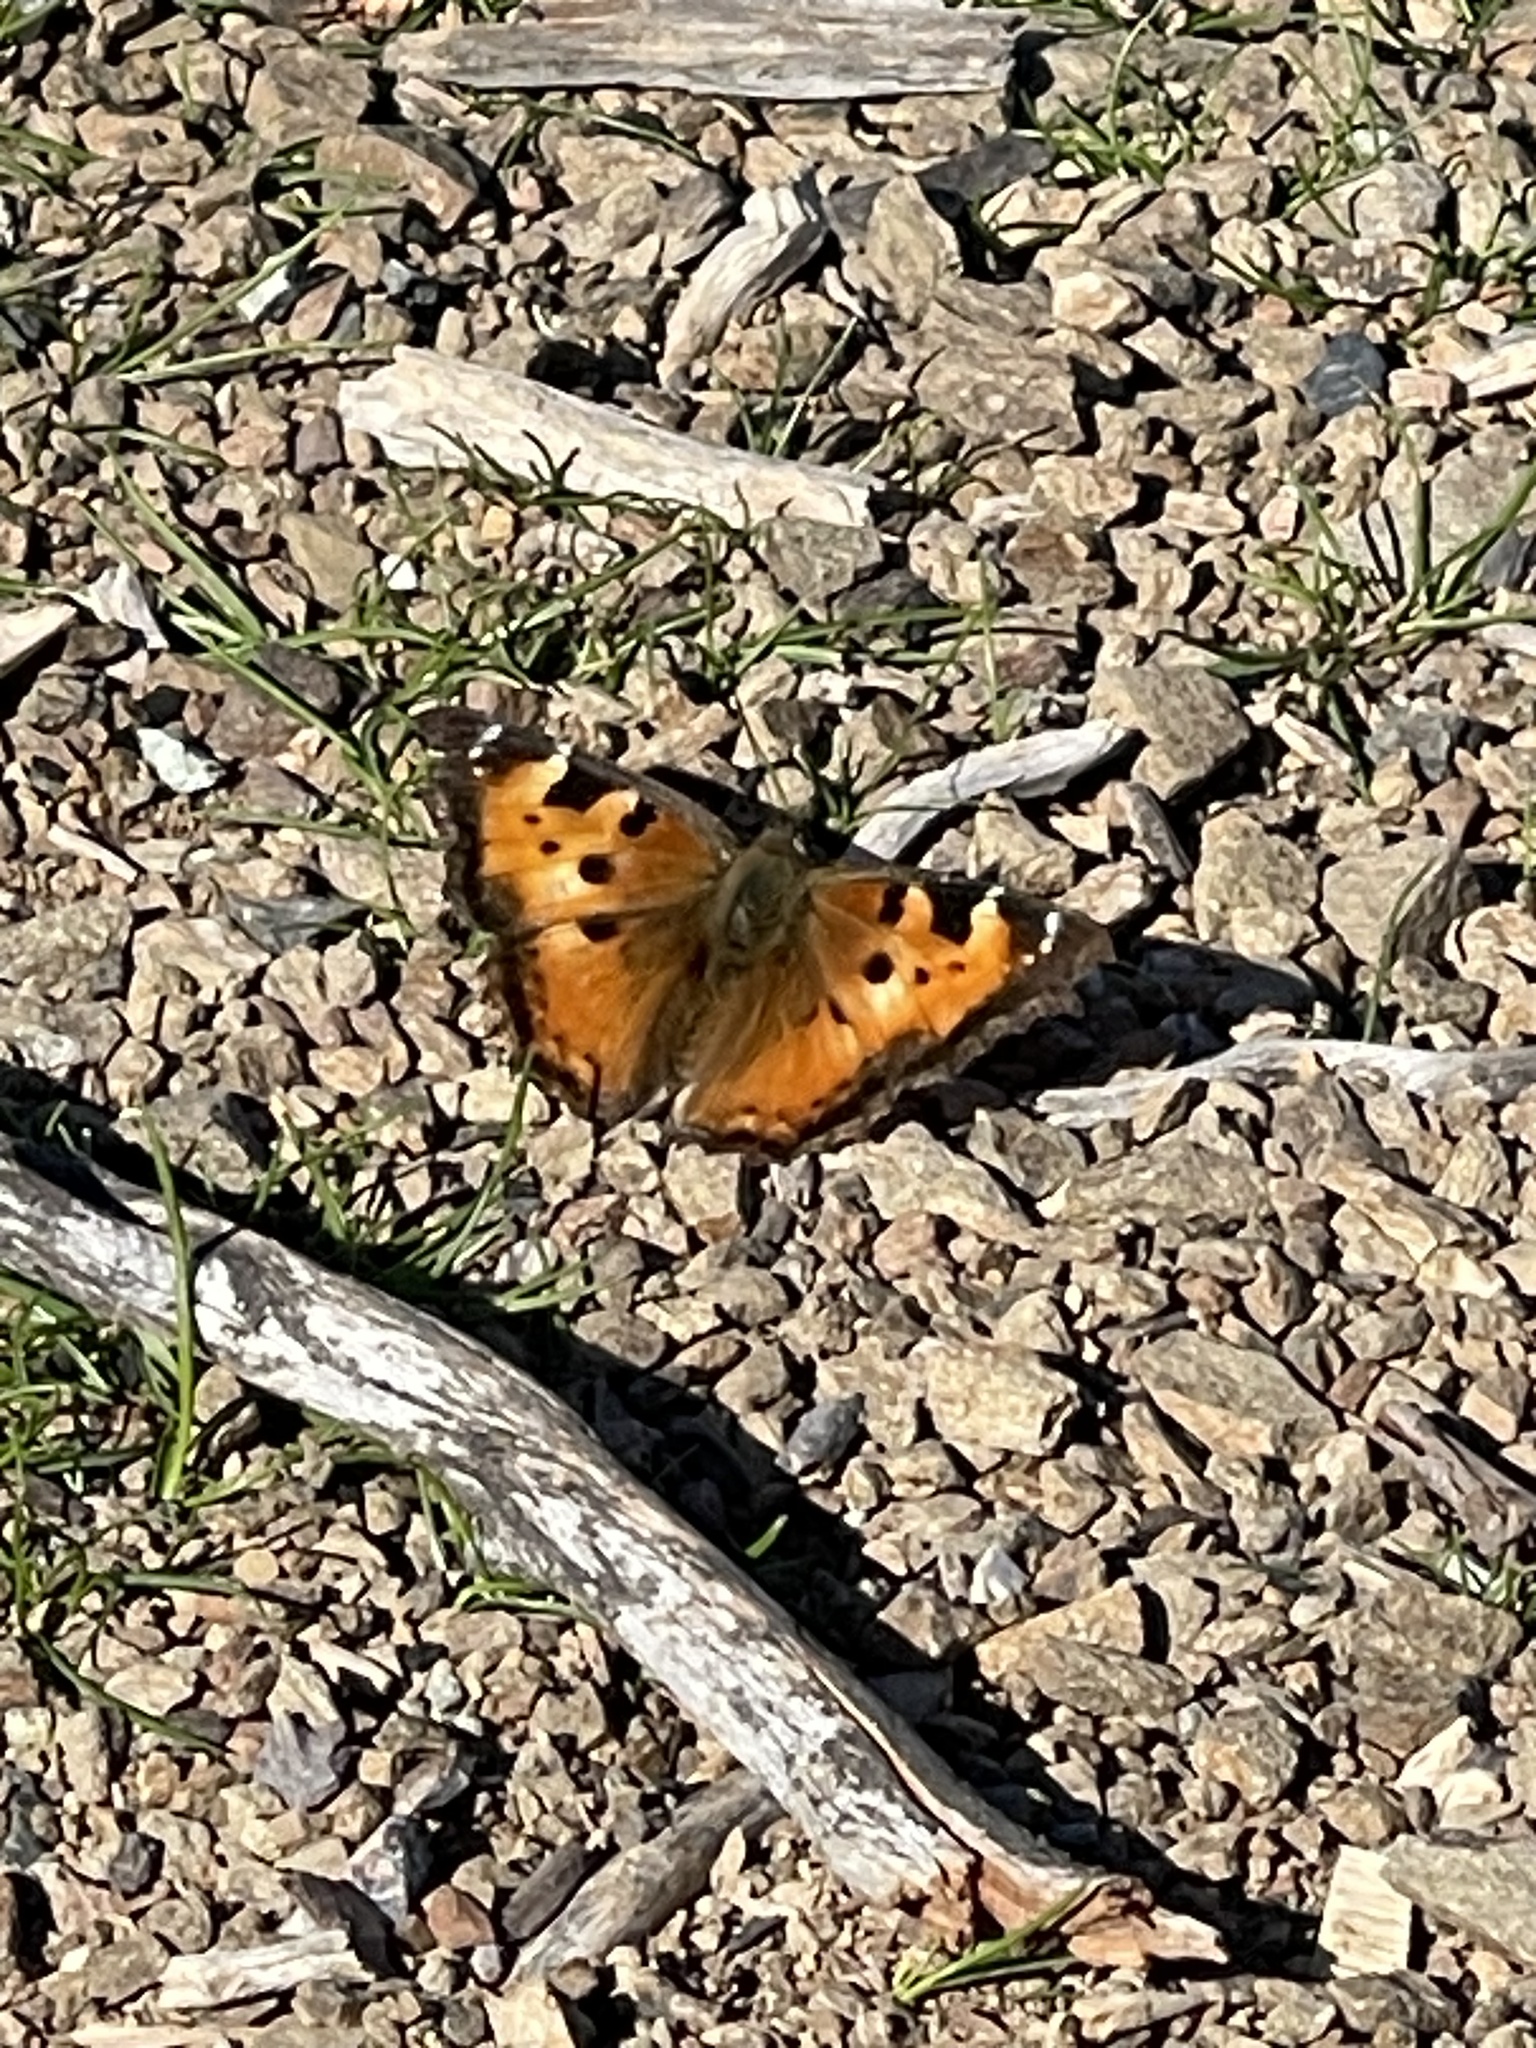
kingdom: Animalia
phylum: Arthropoda
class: Insecta
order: Lepidoptera
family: Nymphalidae
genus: Nymphalis
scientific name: Nymphalis californica
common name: California tortoiseshell
